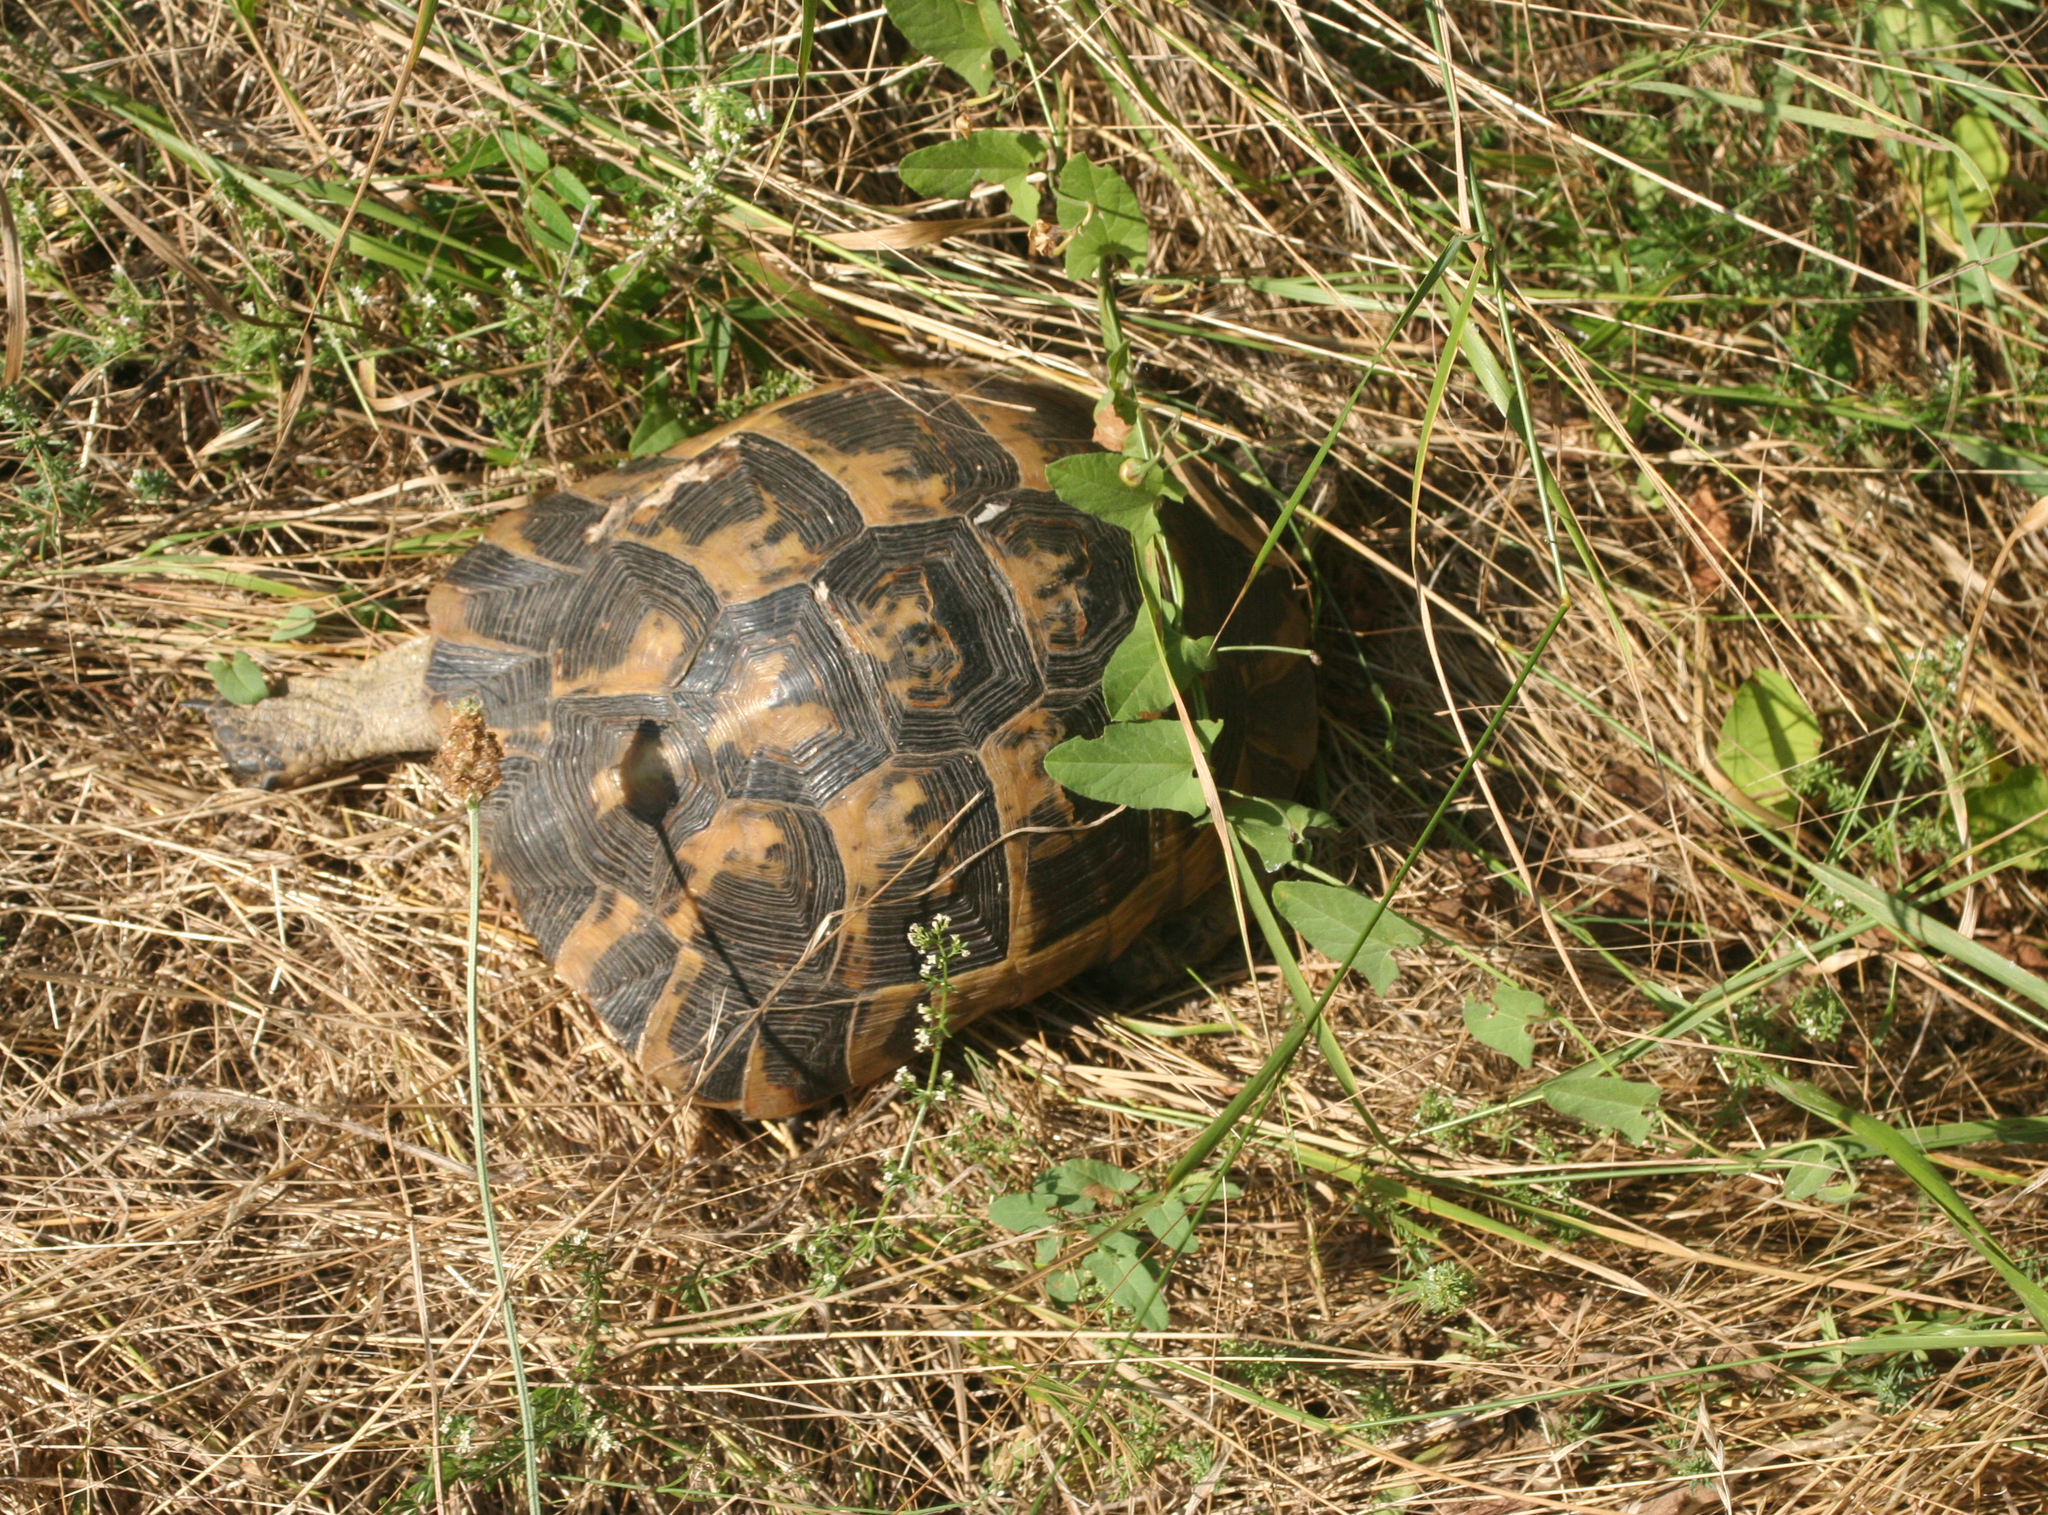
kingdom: Plantae
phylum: Tracheophyta
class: Magnoliopsida
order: Solanales
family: Convolvulaceae
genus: Convolvulus
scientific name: Convolvulus arvensis
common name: Field bindweed
